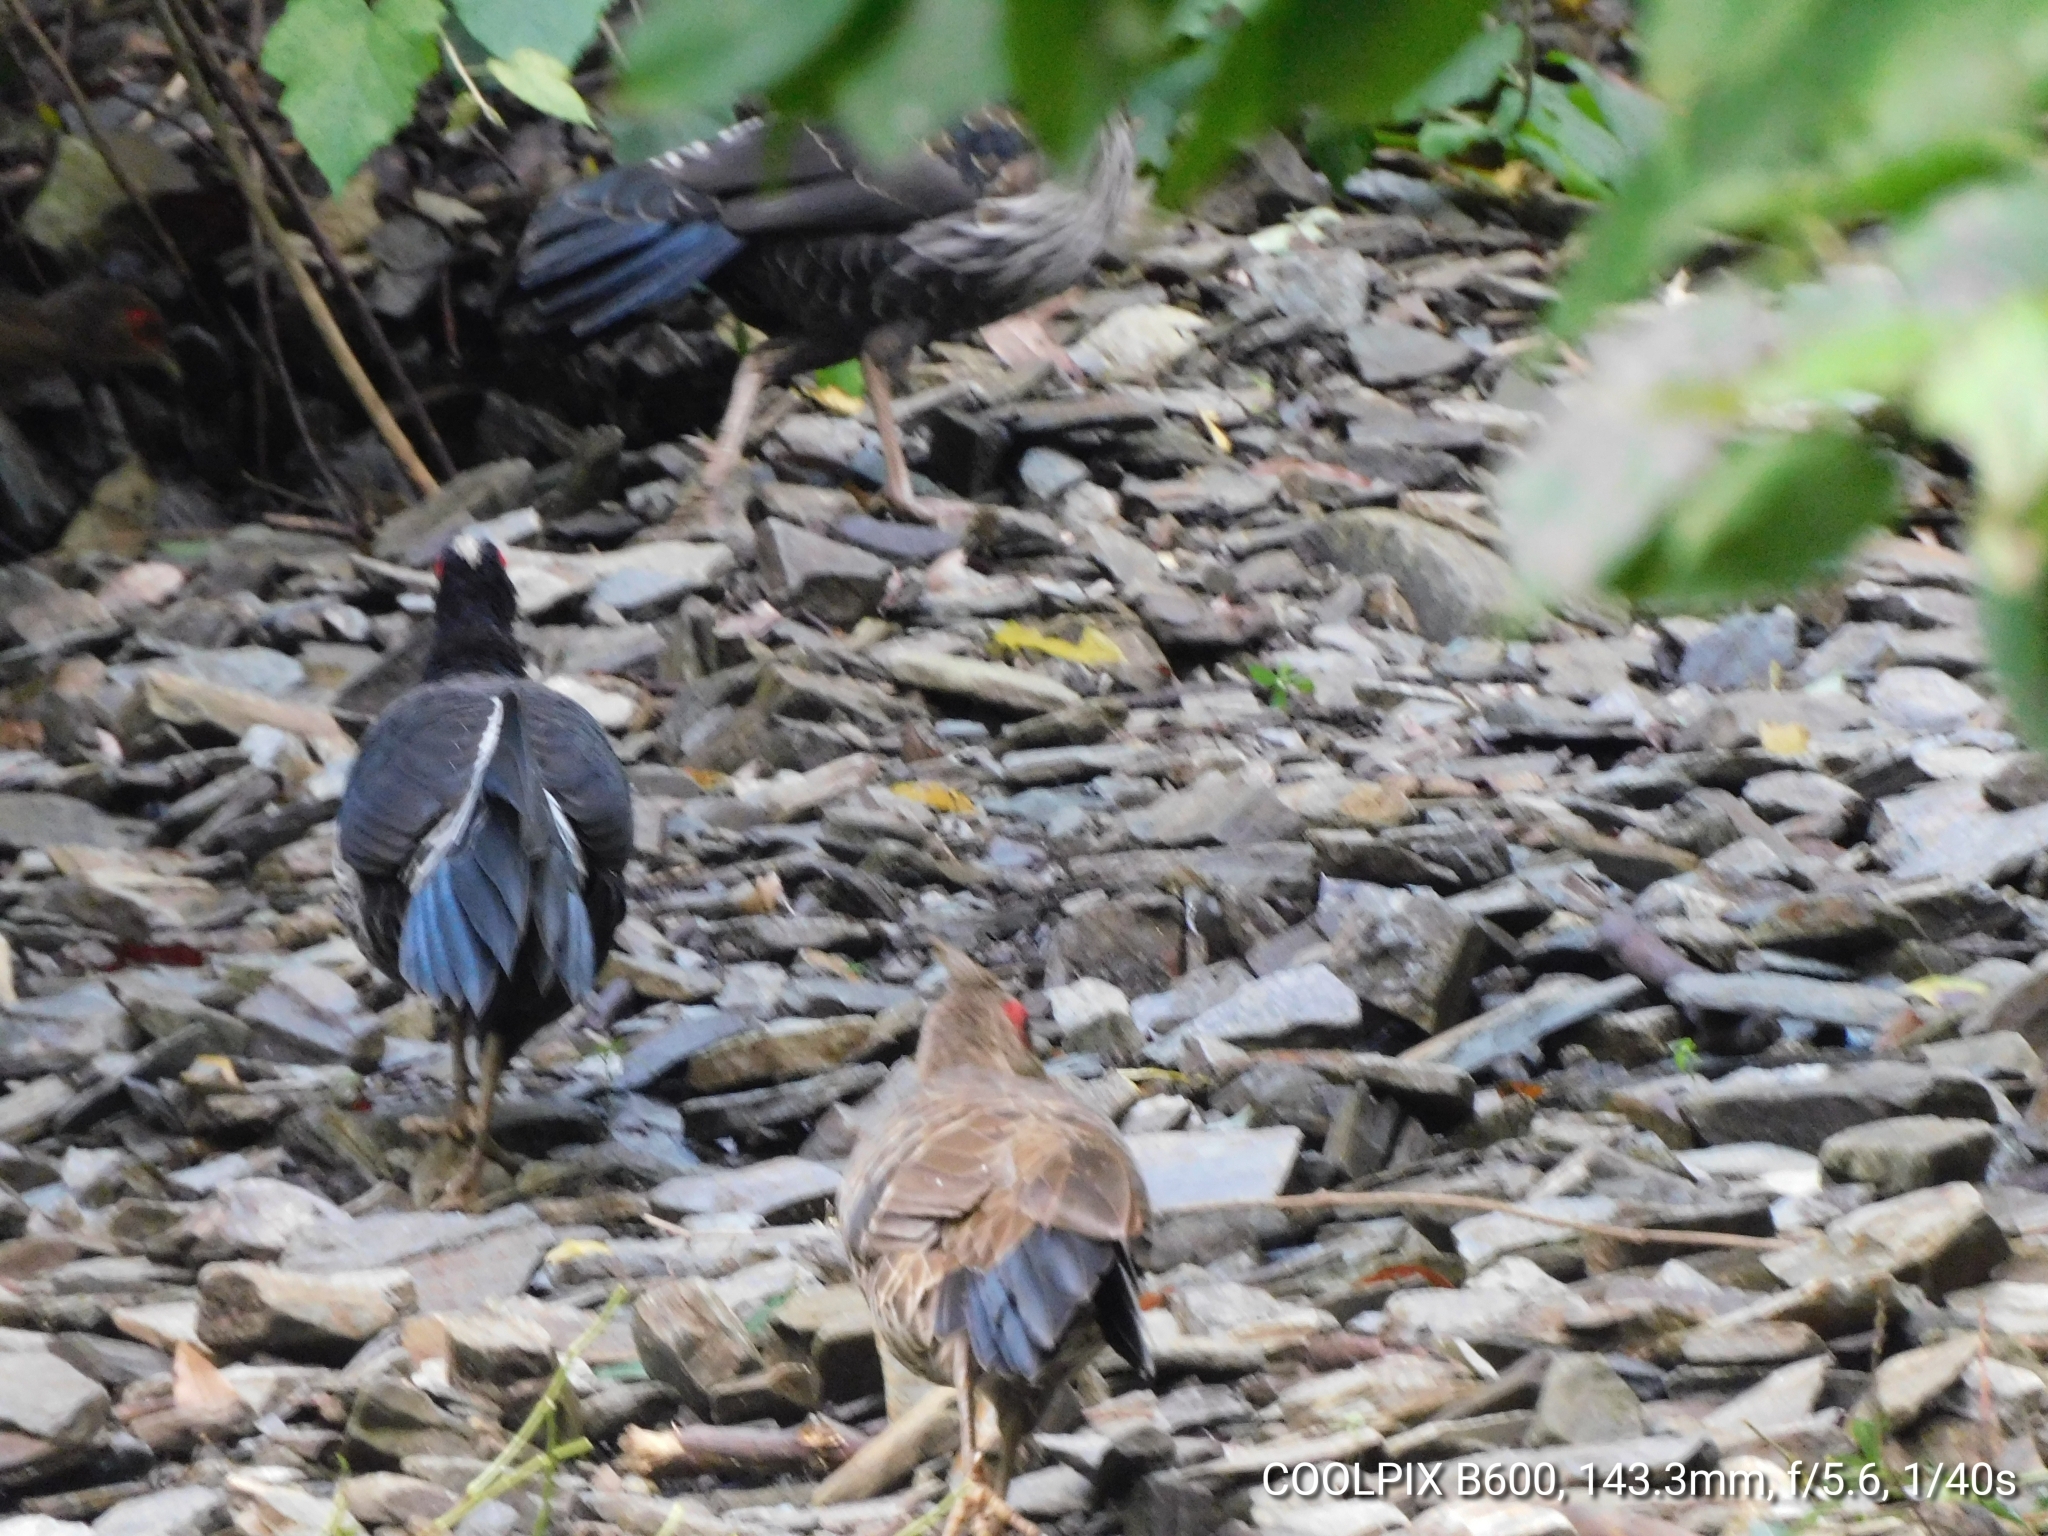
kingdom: Animalia
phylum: Chordata
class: Aves
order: Galliformes
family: Phasianidae
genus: Lophura
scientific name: Lophura leucomelanos
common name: Kalij pheasant
